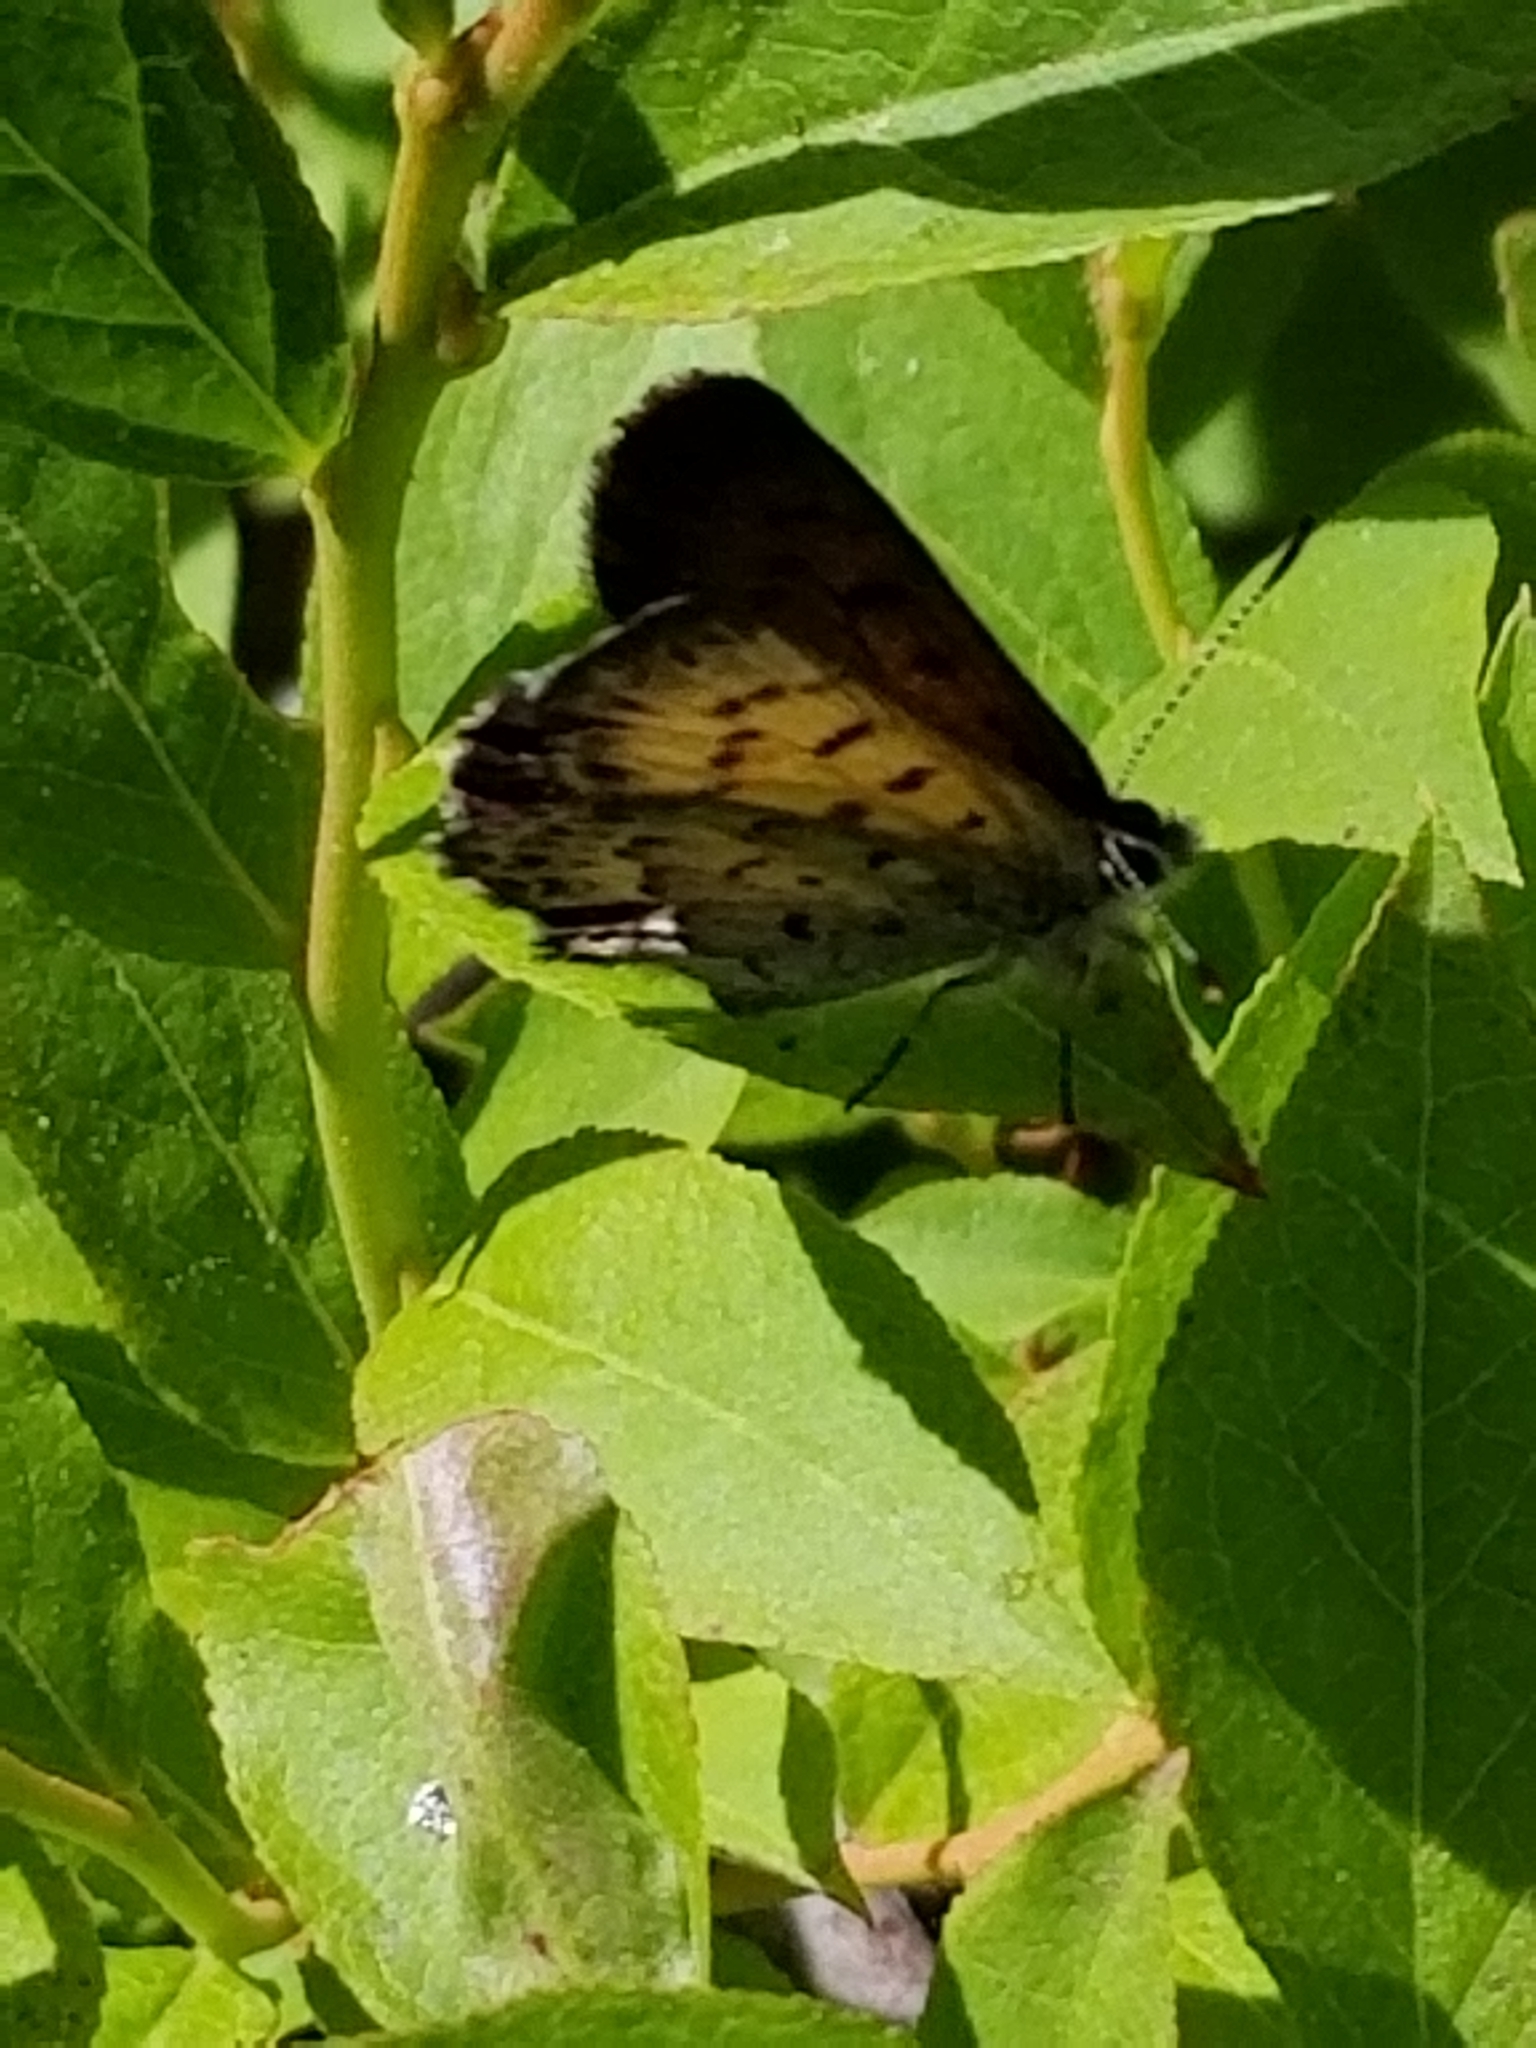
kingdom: Animalia
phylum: Arthropoda
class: Insecta
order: Lepidoptera
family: Lycaenidae
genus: Tharsalea
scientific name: Tharsalea mariposa
